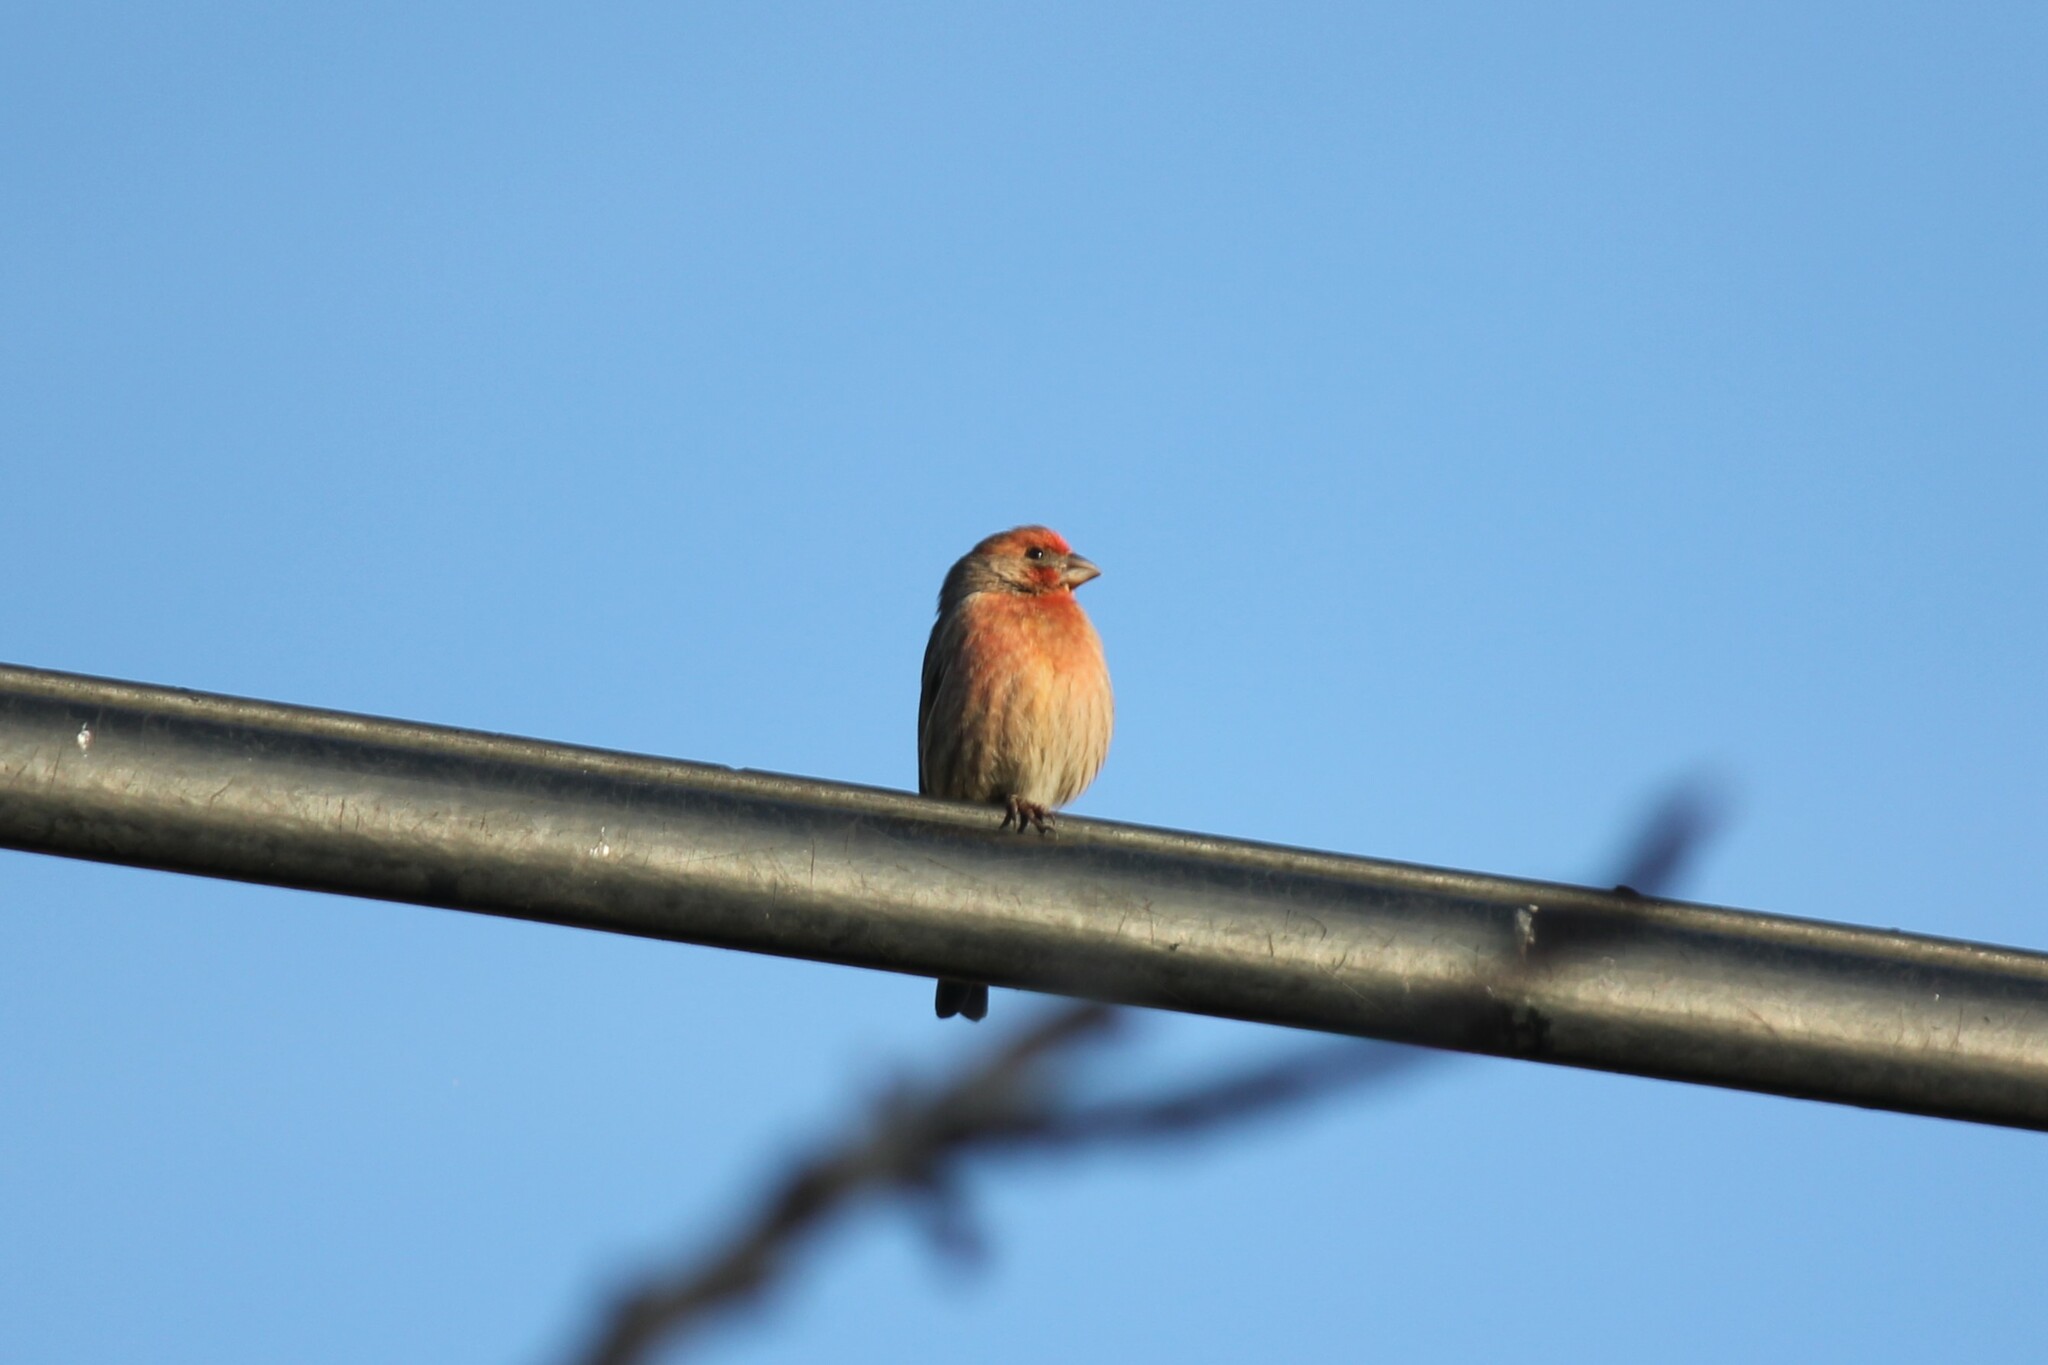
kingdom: Animalia
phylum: Chordata
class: Aves
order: Passeriformes
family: Fringillidae
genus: Haemorhous
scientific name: Haemorhous mexicanus
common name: House finch
